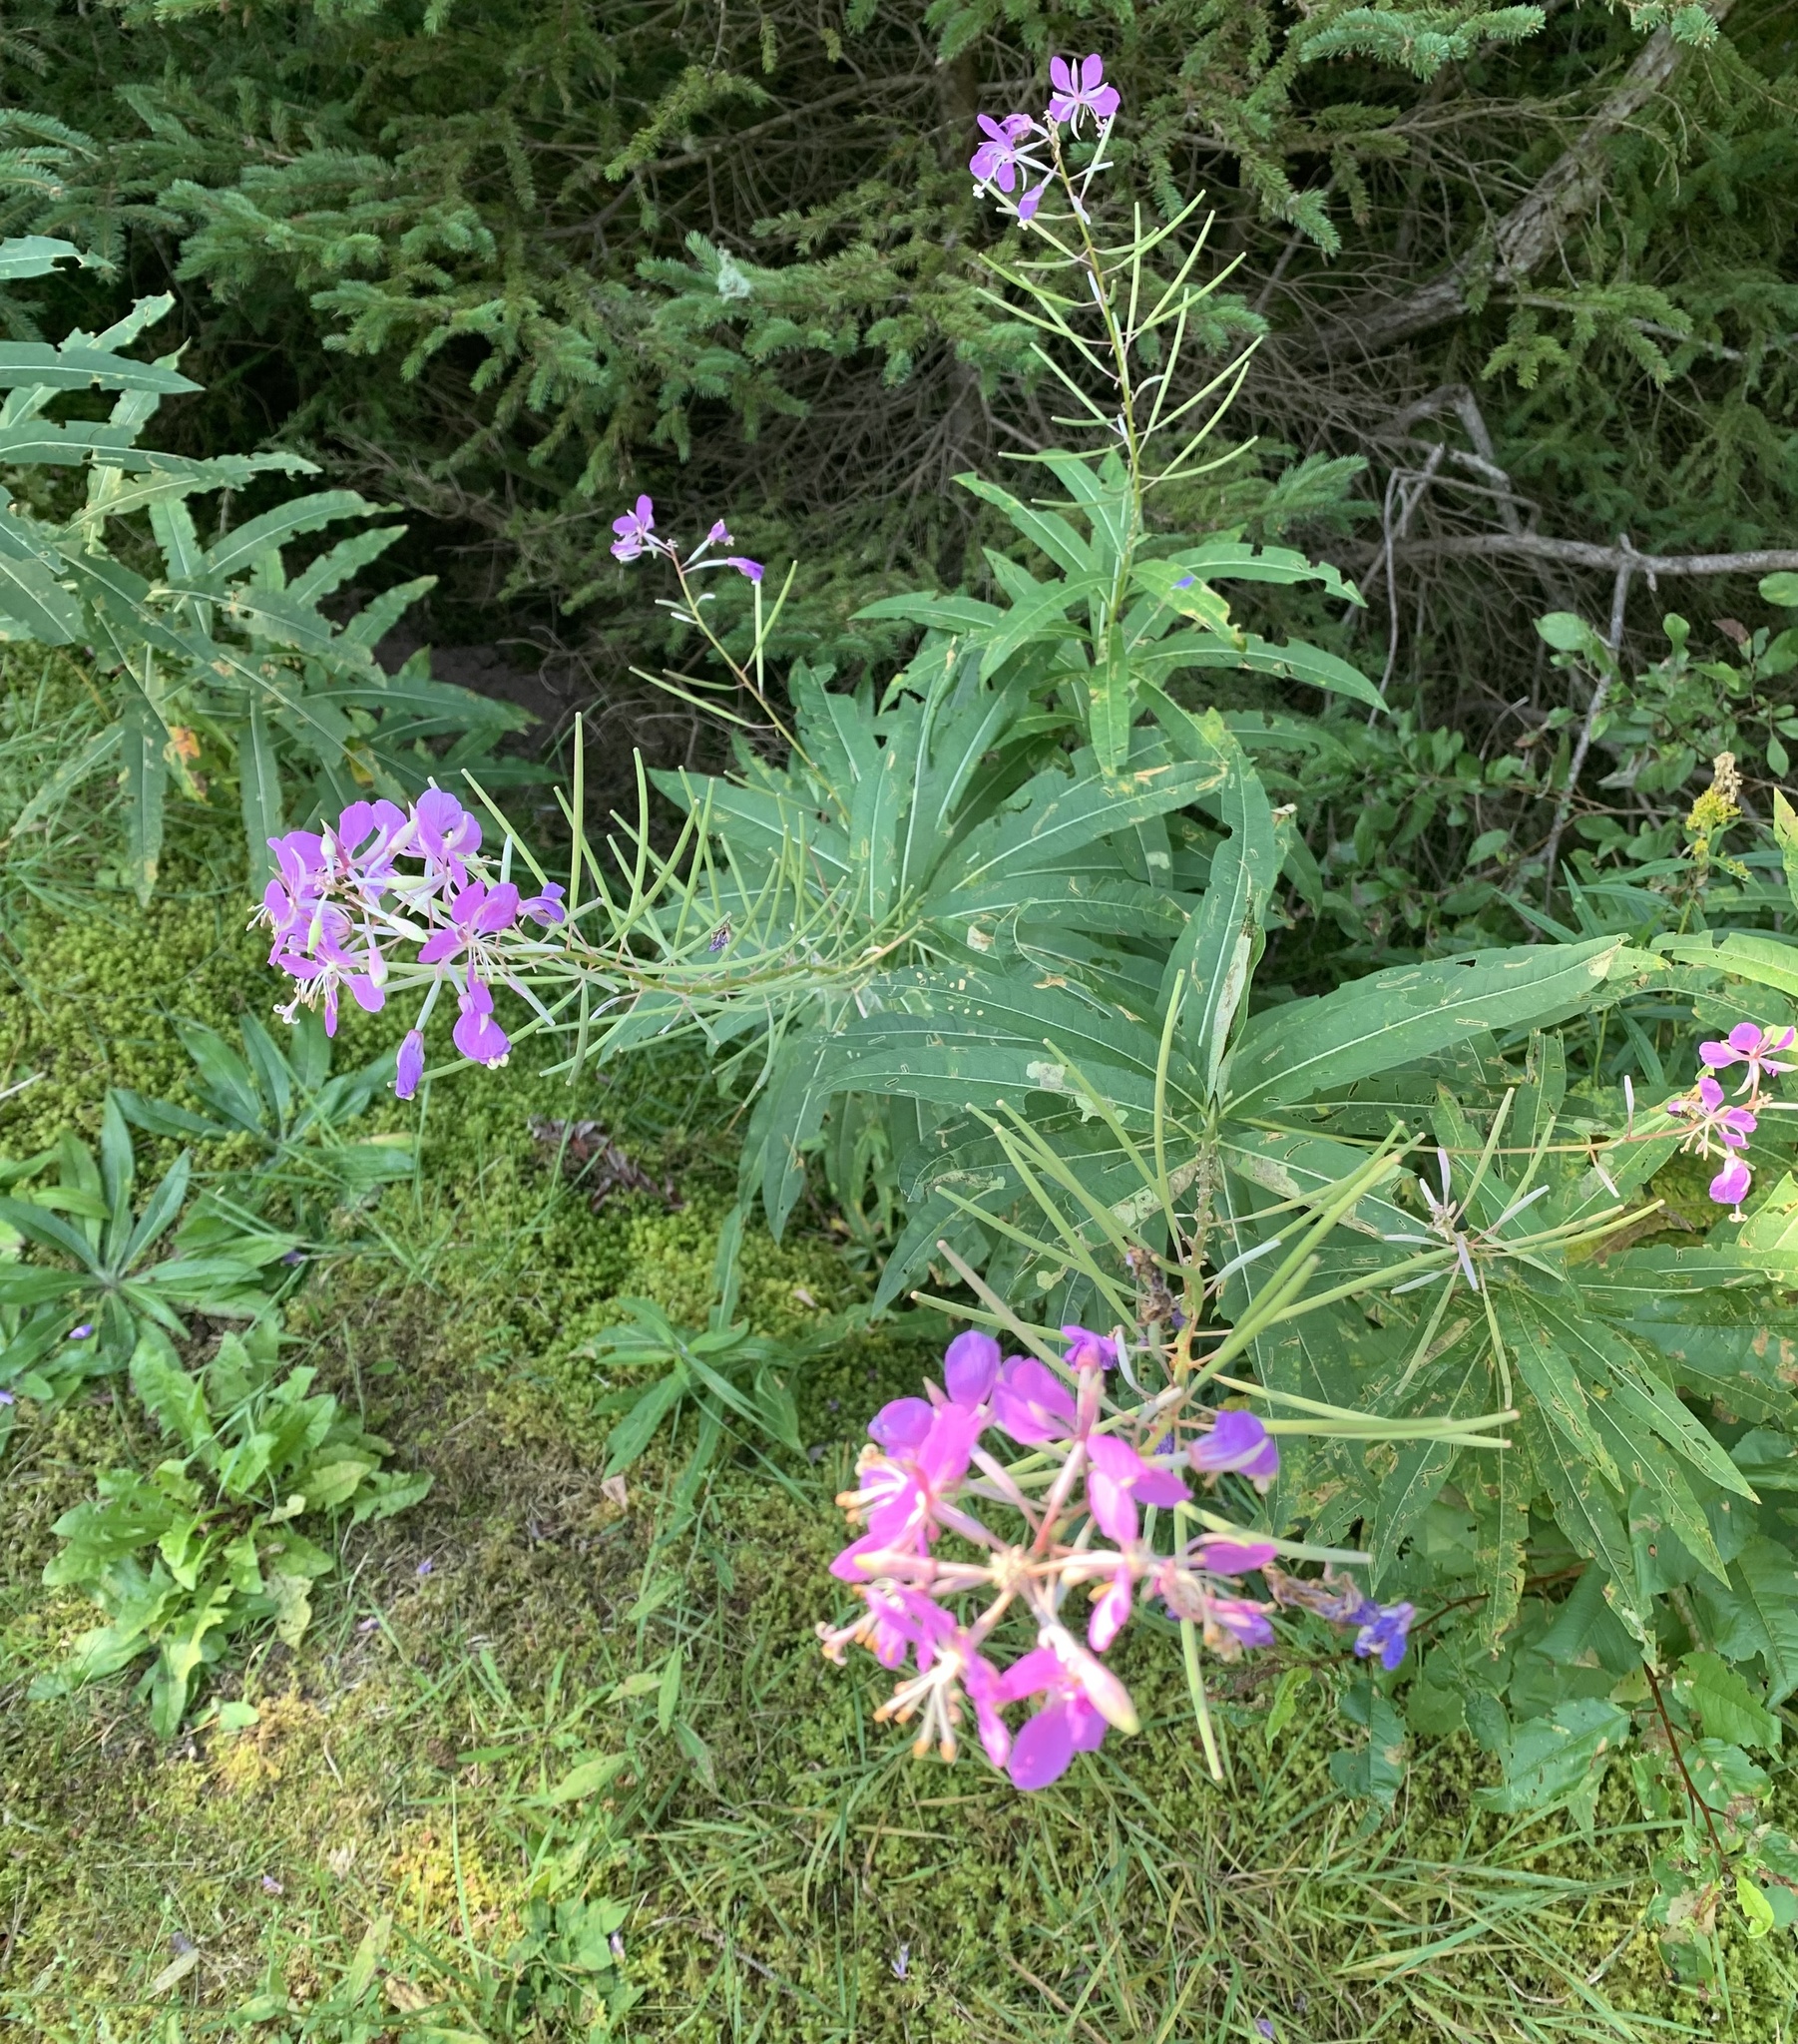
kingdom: Plantae
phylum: Tracheophyta
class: Magnoliopsida
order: Myrtales
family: Onagraceae
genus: Chamaenerion
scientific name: Chamaenerion angustifolium
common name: Fireweed
